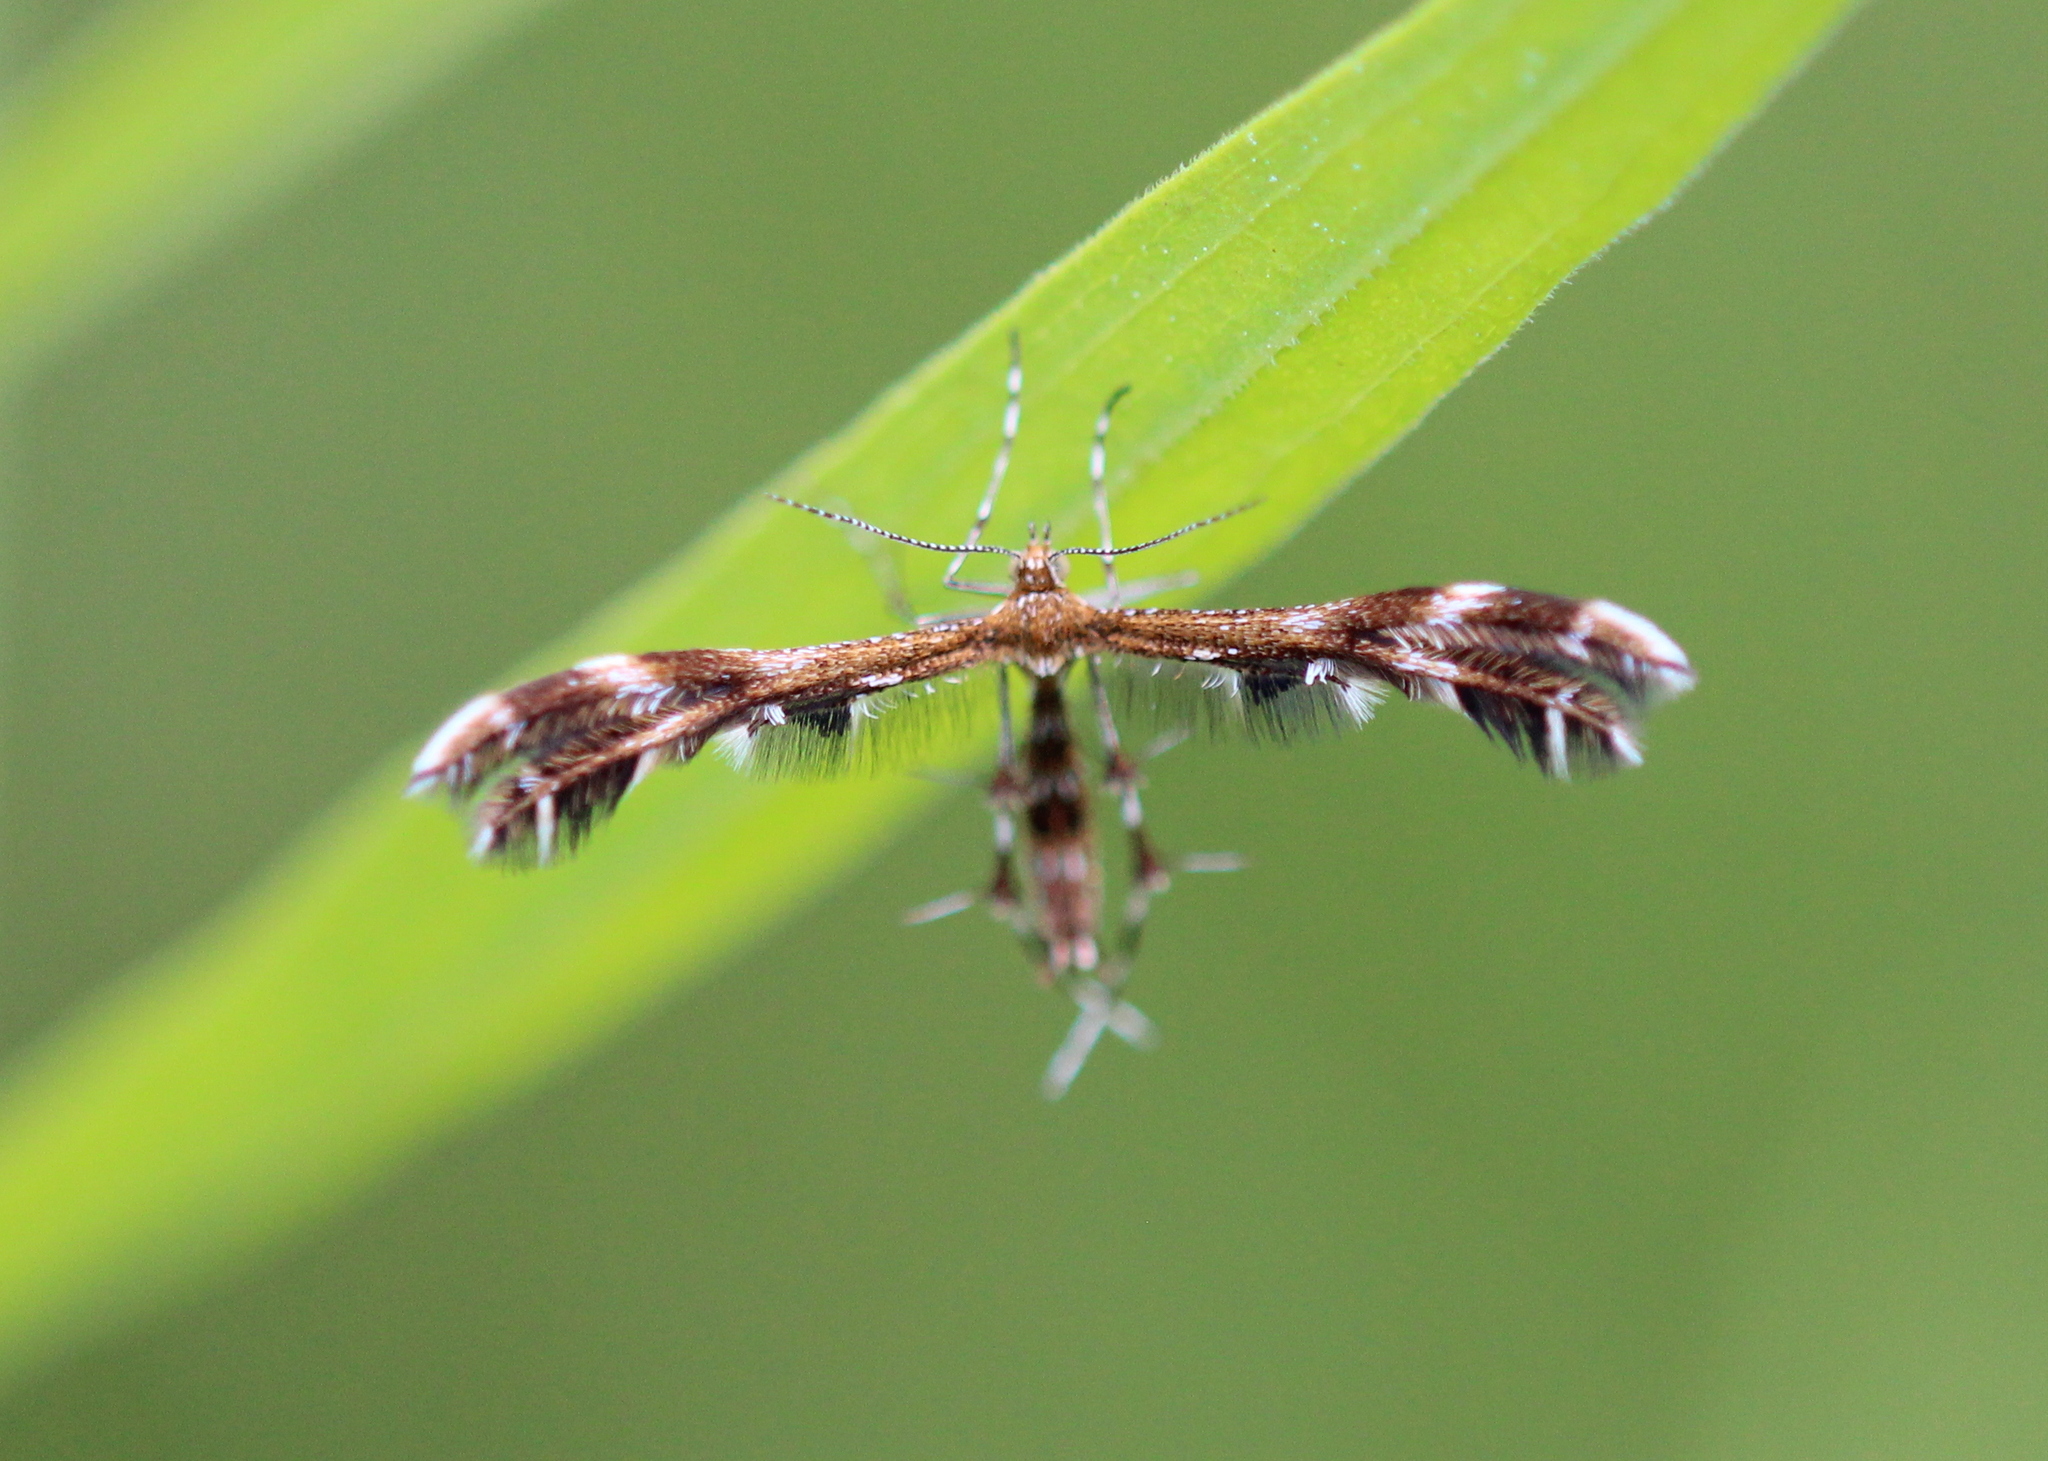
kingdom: Animalia
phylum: Arthropoda
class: Insecta
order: Lepidoptera
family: Pterophoridae
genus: Dejongia
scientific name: Dejongia lobidactylus
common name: Lobed plume moth
